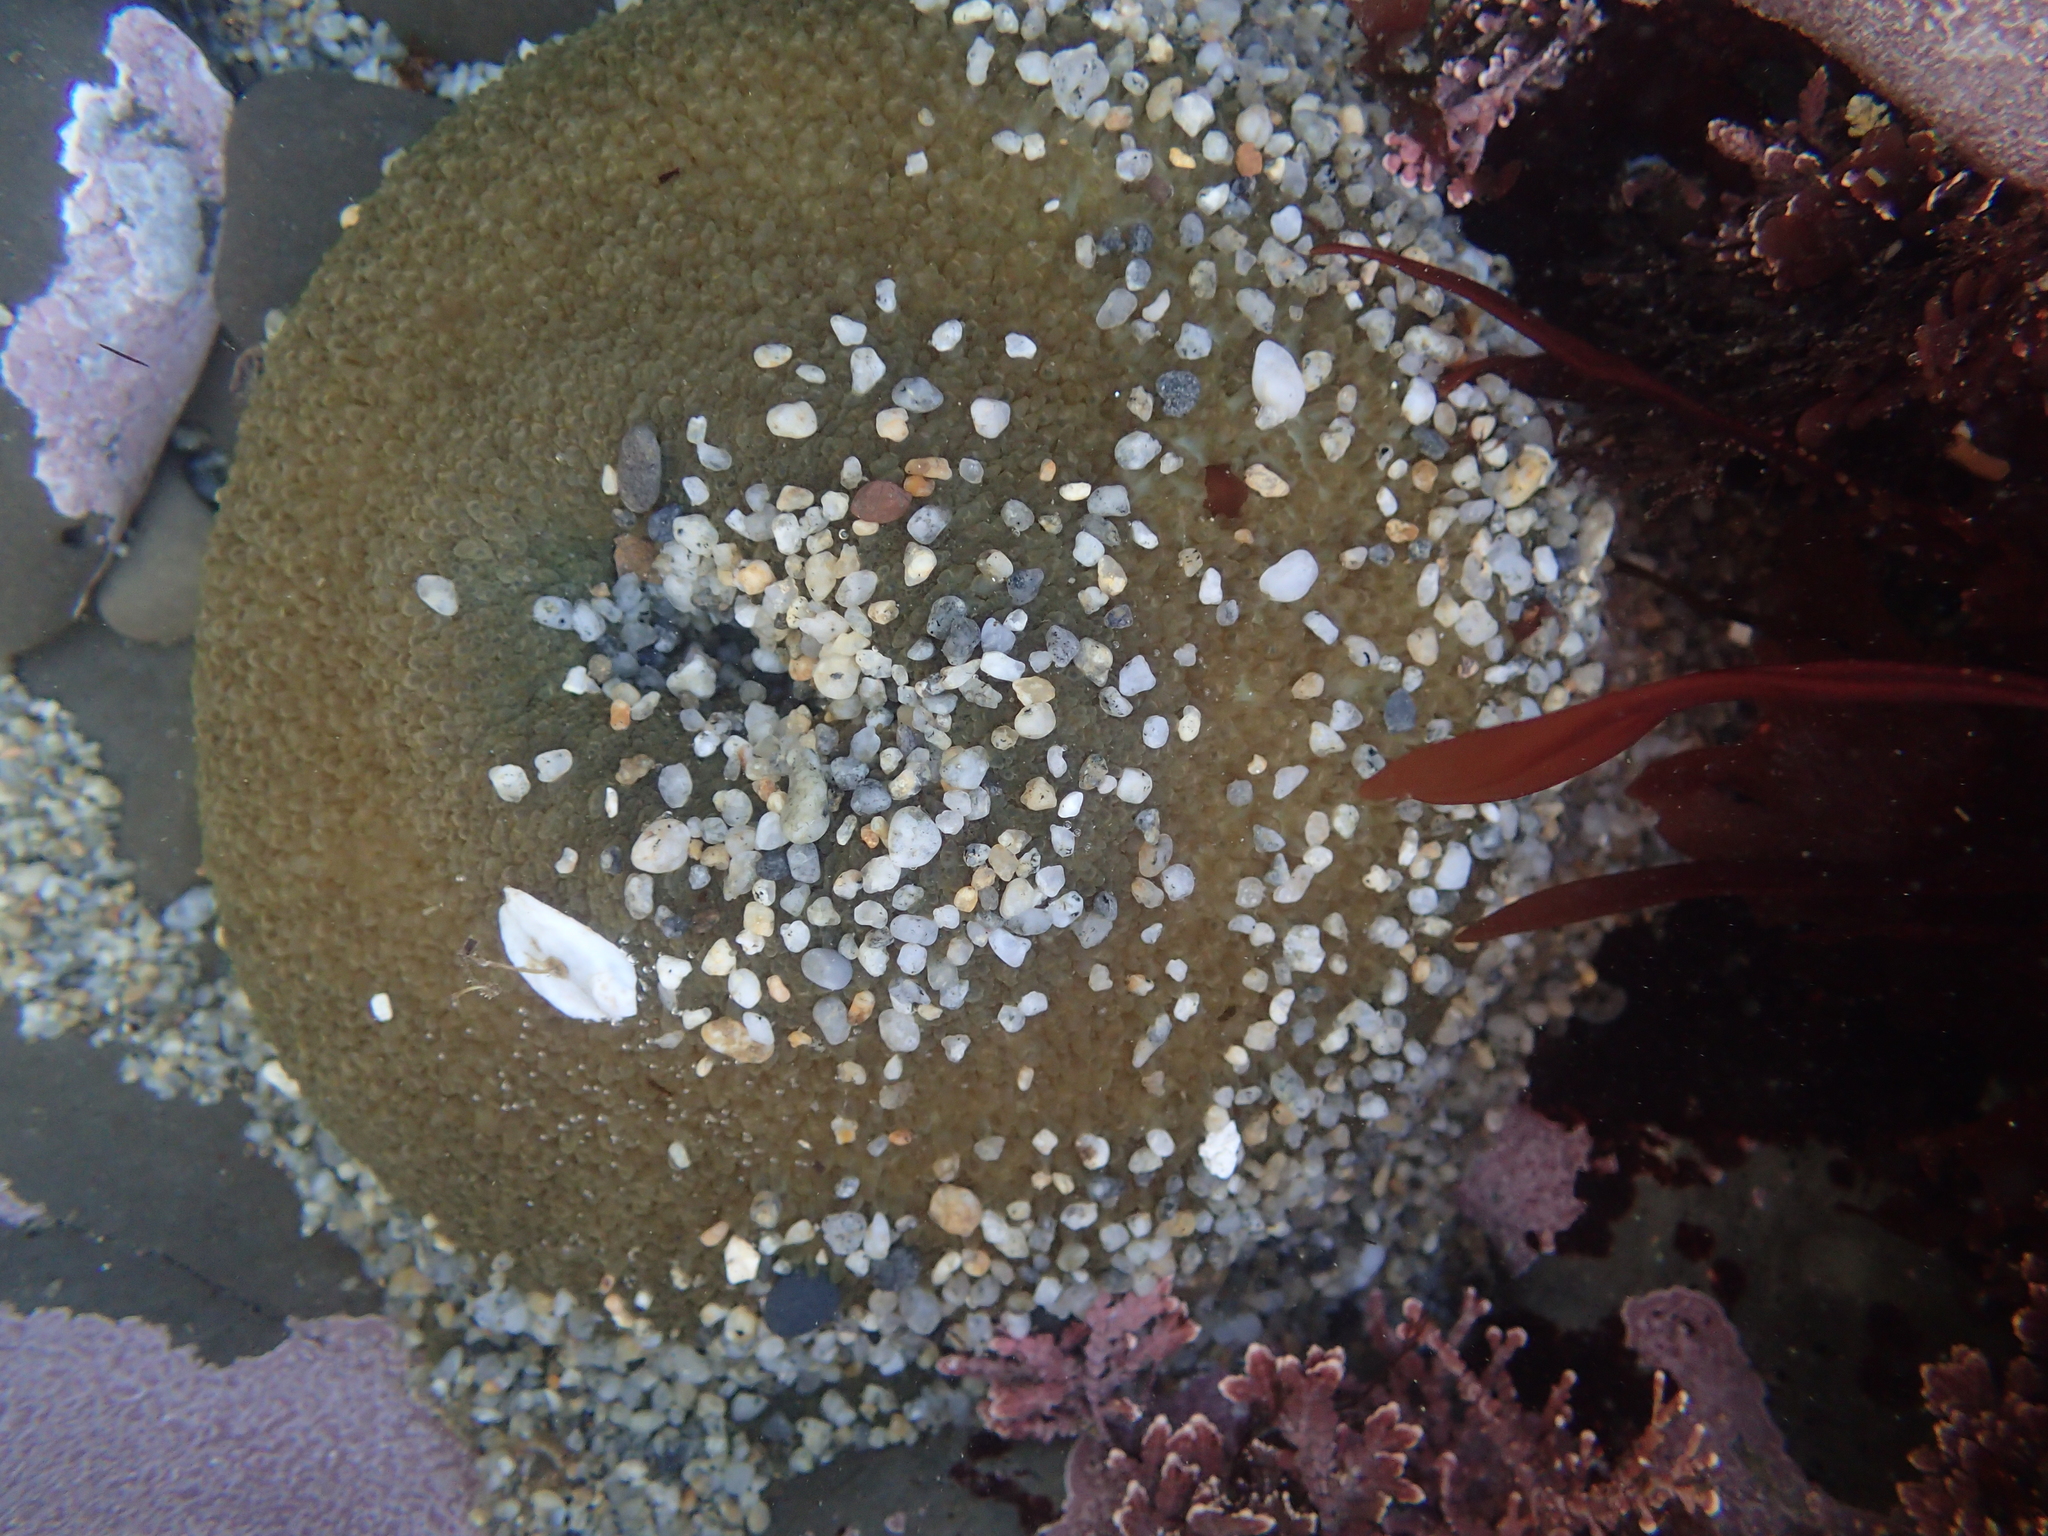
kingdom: Animalia
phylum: Cnidaria
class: Anthozoa
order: Actiniaria
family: Actiniidae
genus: Anthopleura
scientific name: Anthopleura xanthogrammica
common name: Giant green anemone
